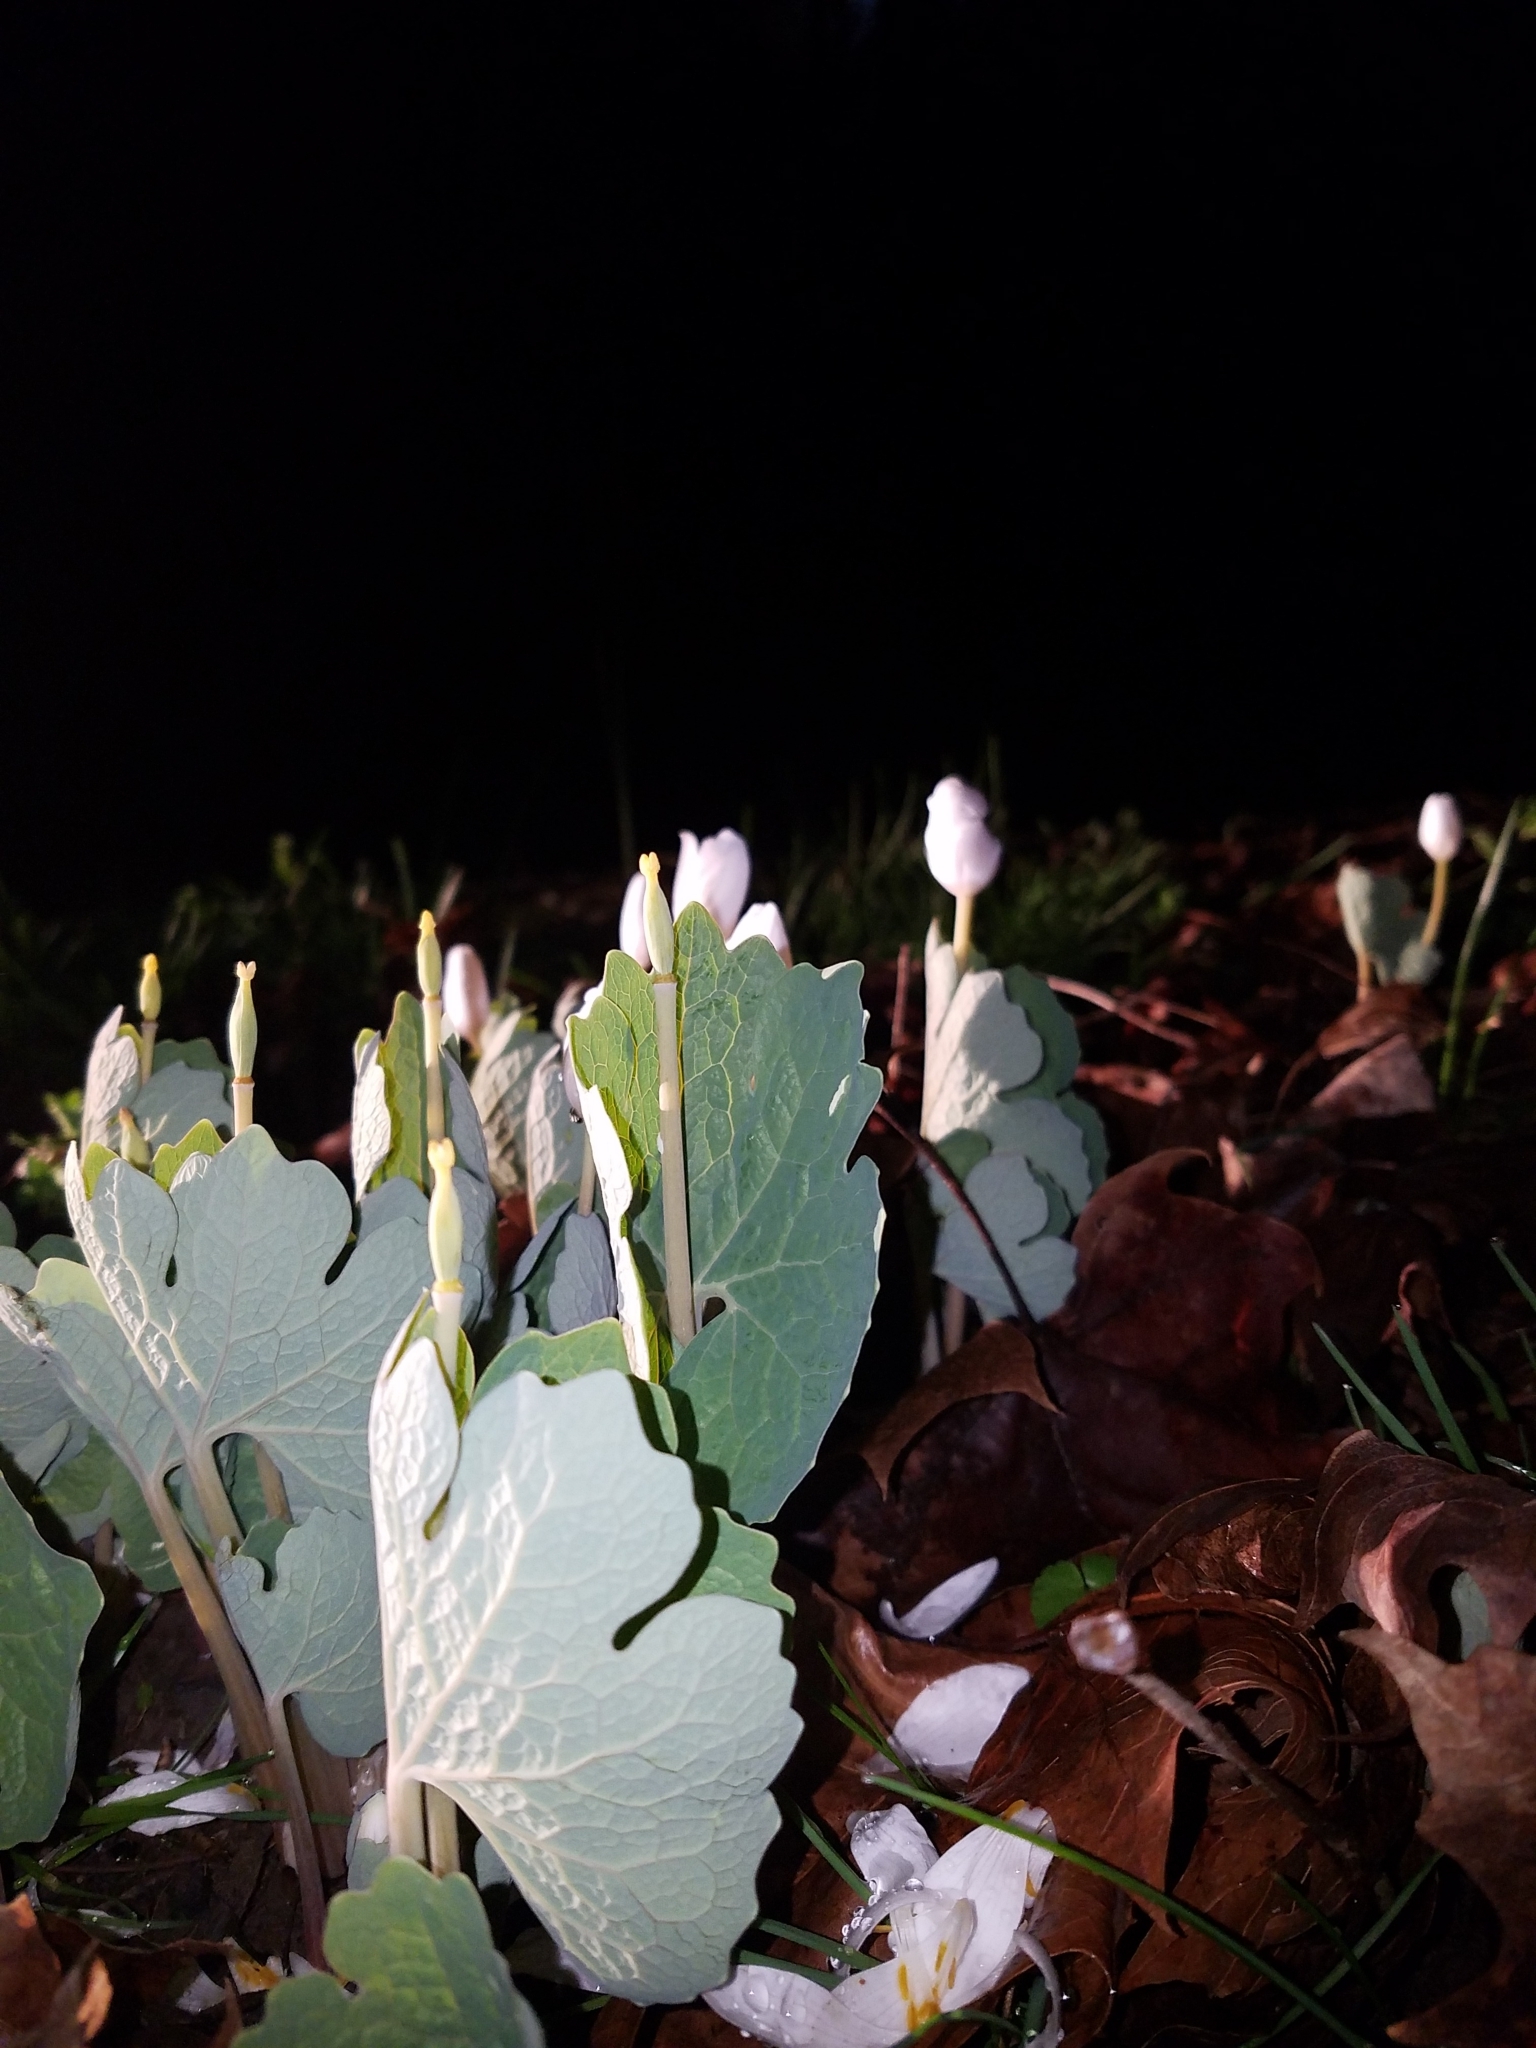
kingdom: Plantae
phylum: Tracheophyta
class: Magnoliopsida
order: Ranunculales
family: Papaveraceae
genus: Sanguinaria
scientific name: Sanguinaria canadensis
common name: Bloodroot
